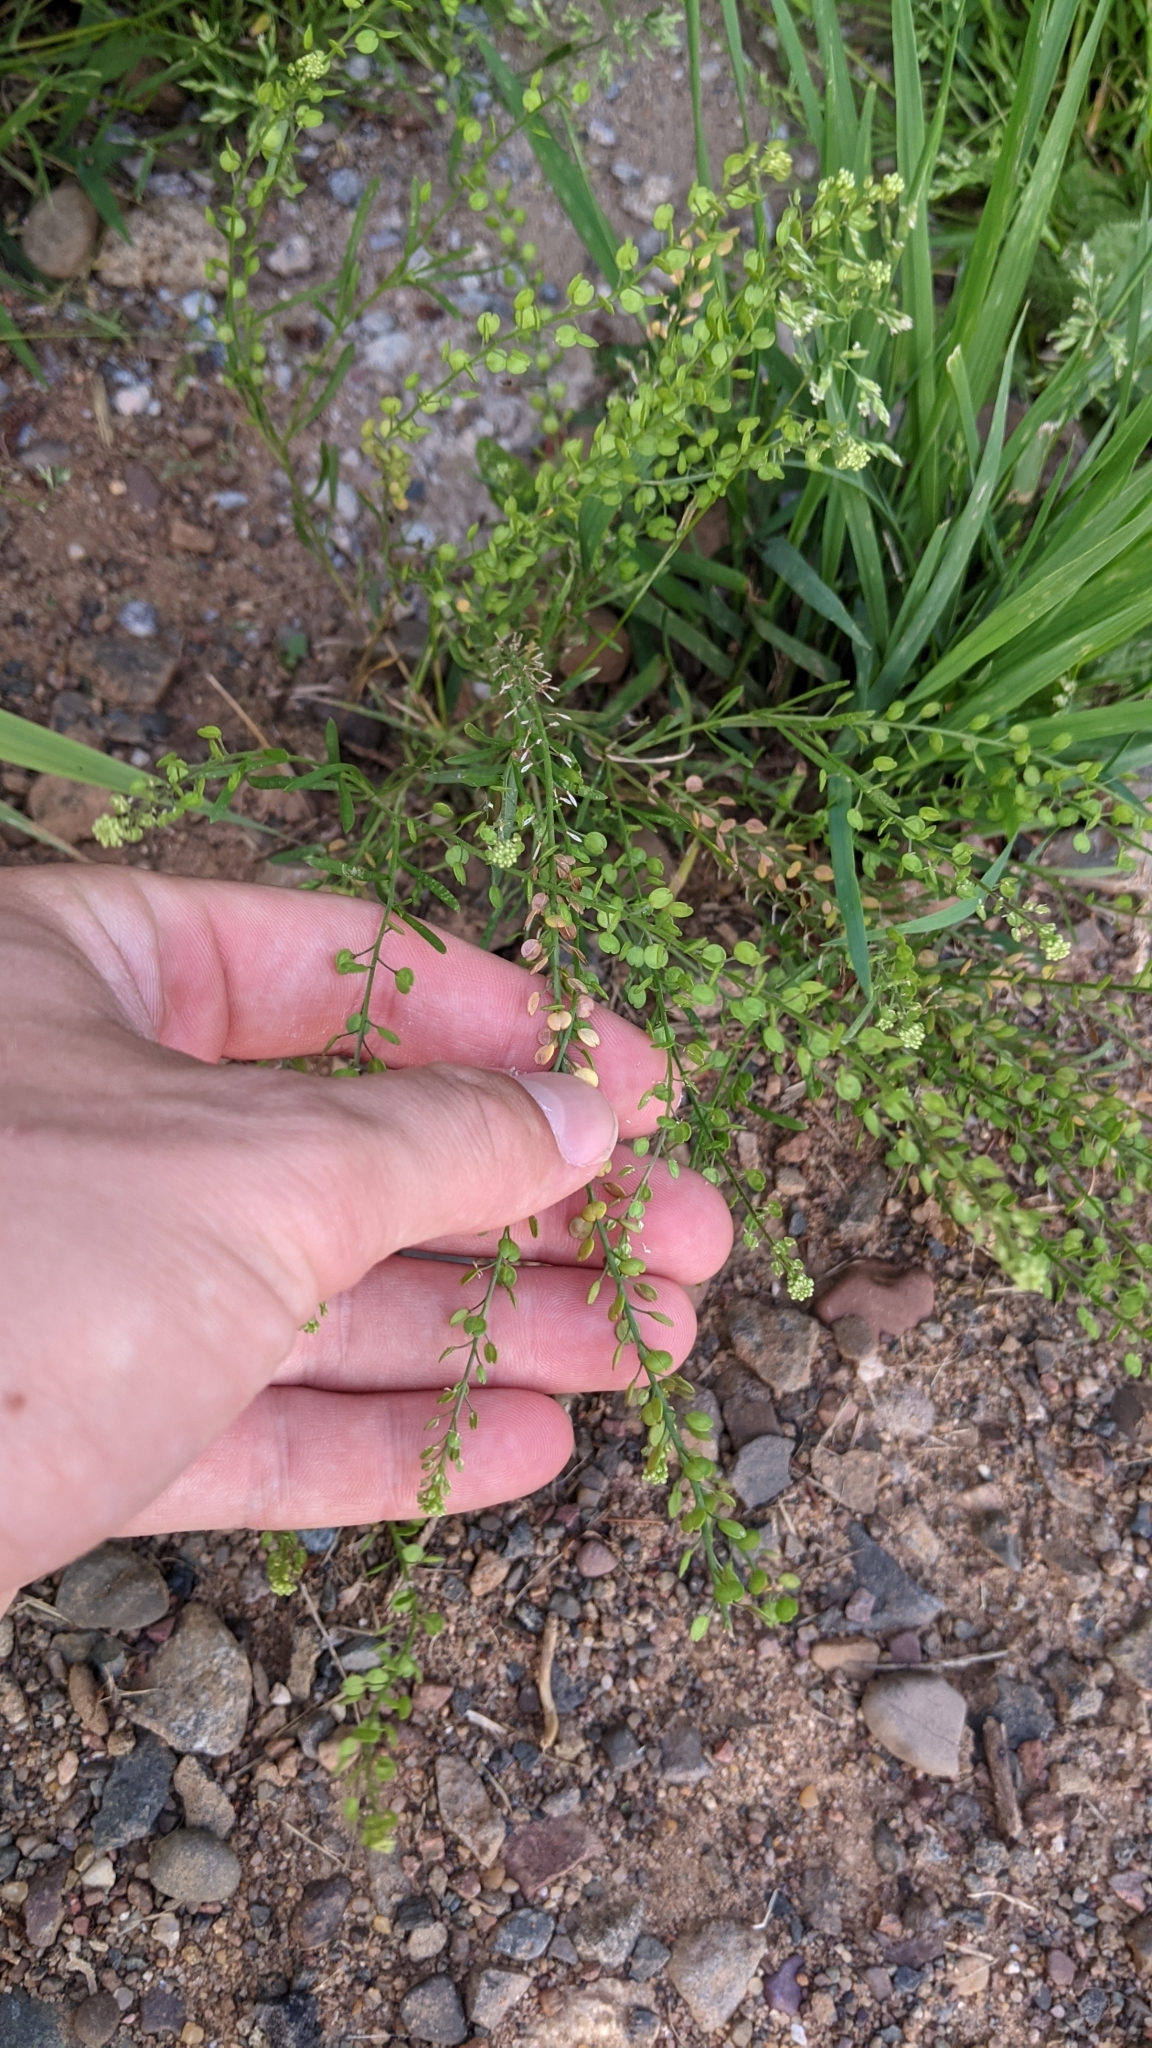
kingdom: Plantae
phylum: Tracheophyta
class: Magnoliopsida
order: Brassicales
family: Brassicaceae
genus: Lepidium
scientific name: Lepidium densiflorum
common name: Miner's pepperwort
